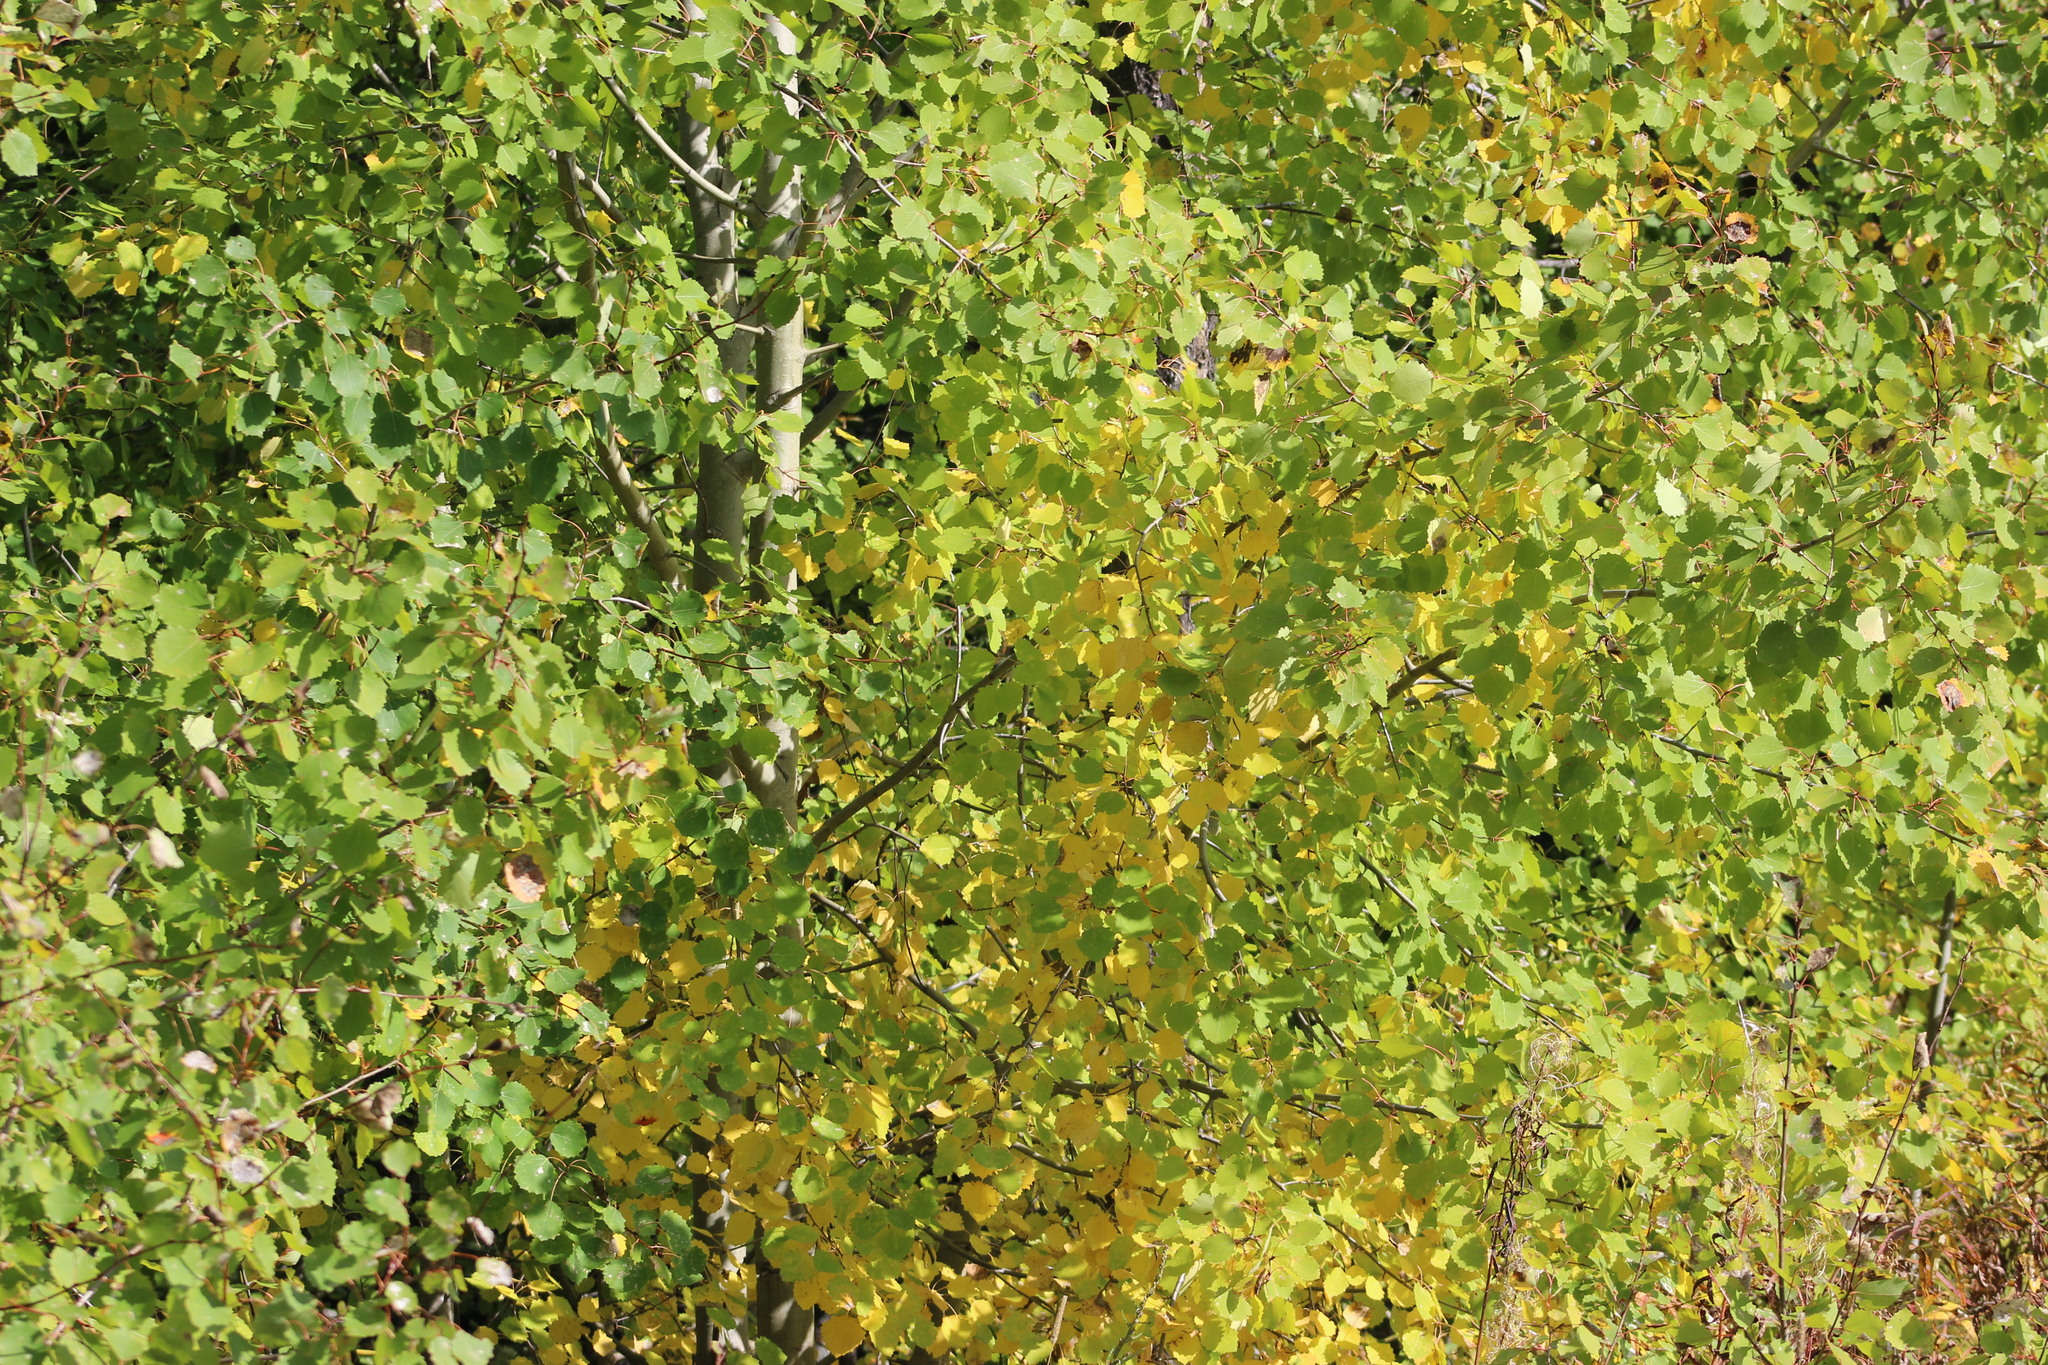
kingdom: Plantae
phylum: Tracheophyta
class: Magnoliopsida
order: Malpighiales
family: Salicaceae
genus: Populus
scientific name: Populus tremula
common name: European aspen
